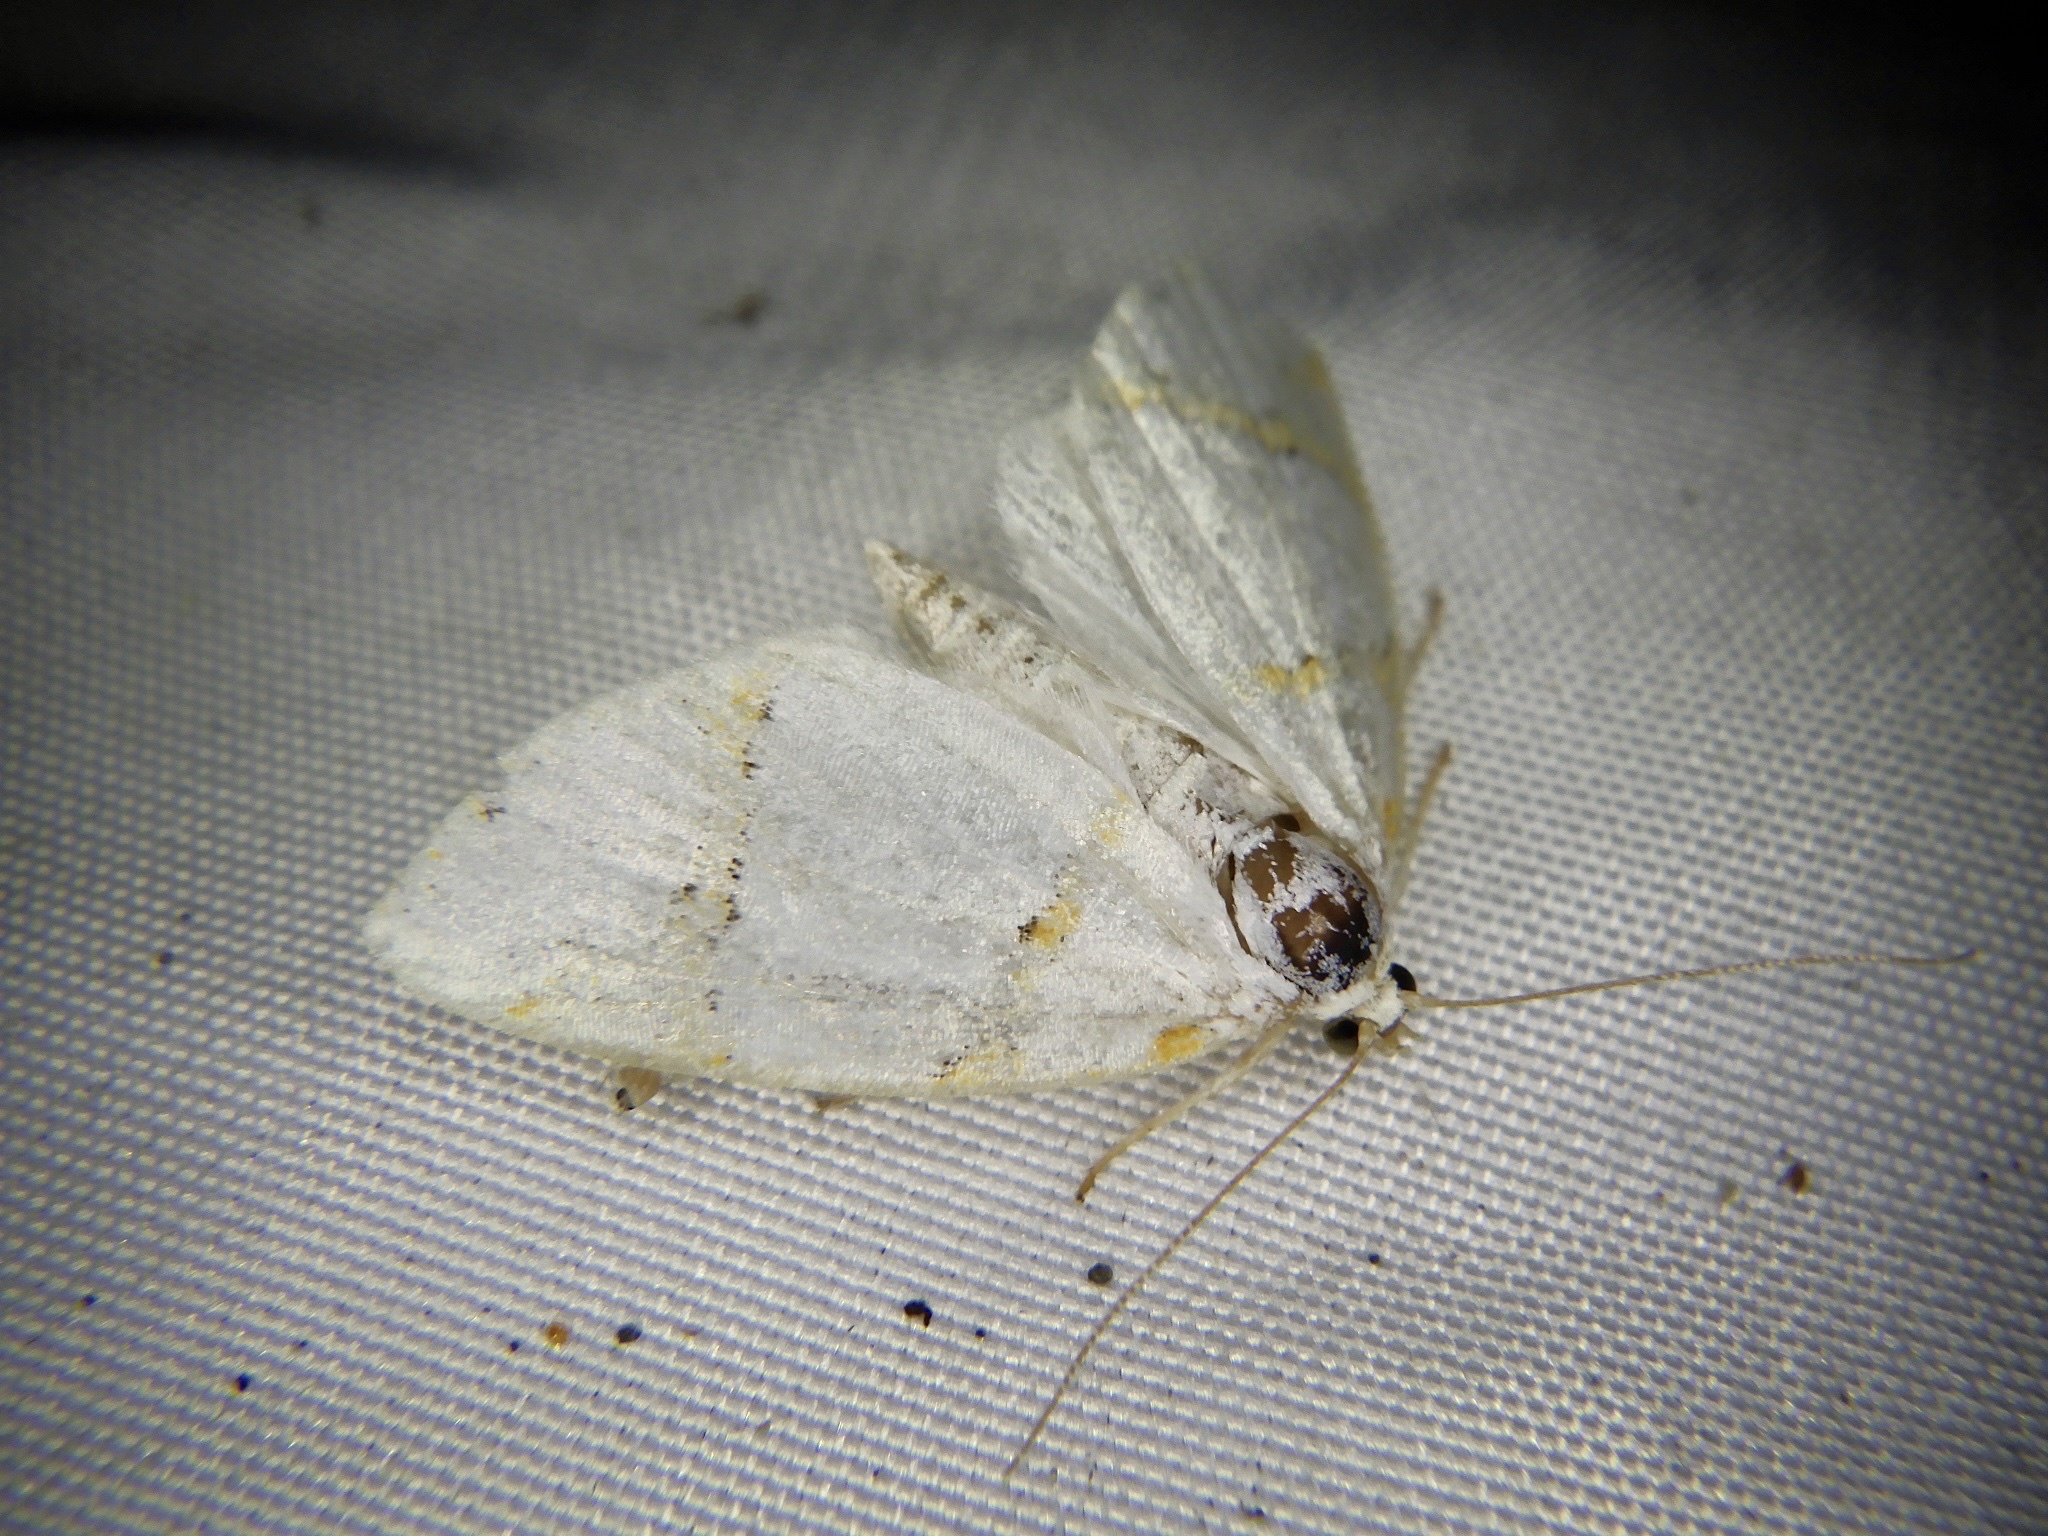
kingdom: Animalia
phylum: Arthropoda
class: Insecta
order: Lepidoptera
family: Nolidae
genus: Ariolica
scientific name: Ariolica argentea
